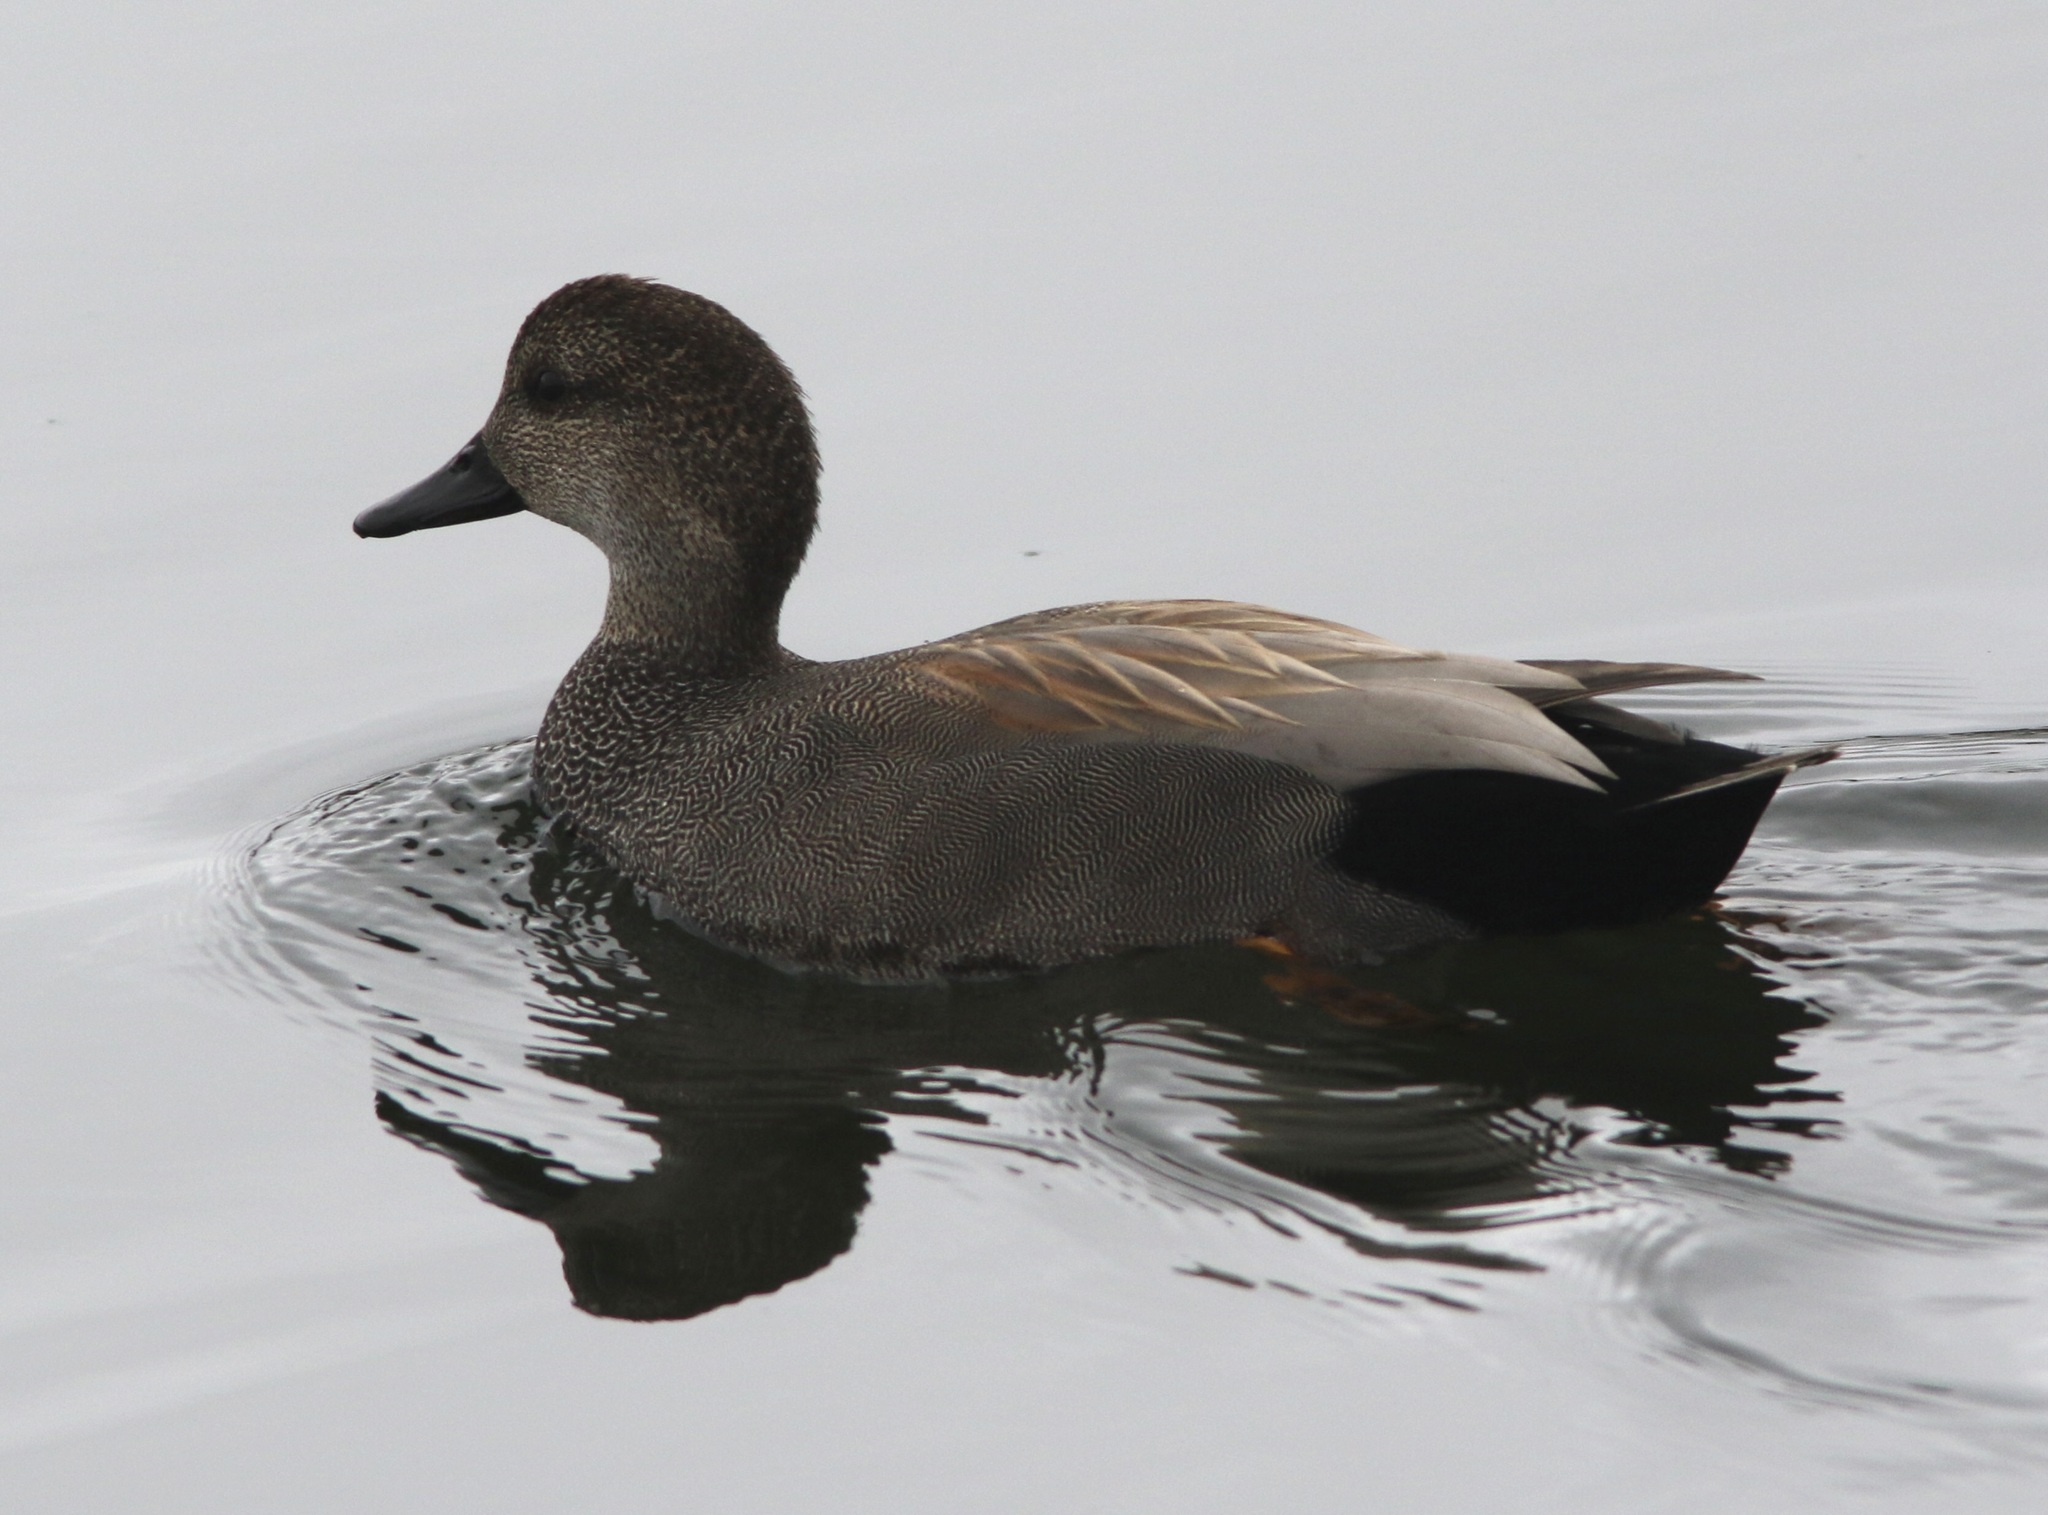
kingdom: Animalia
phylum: Chordata
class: Aves
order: Anseriformes
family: Anatidae
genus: Mareca
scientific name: Mareca strepera
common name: Gadwall
